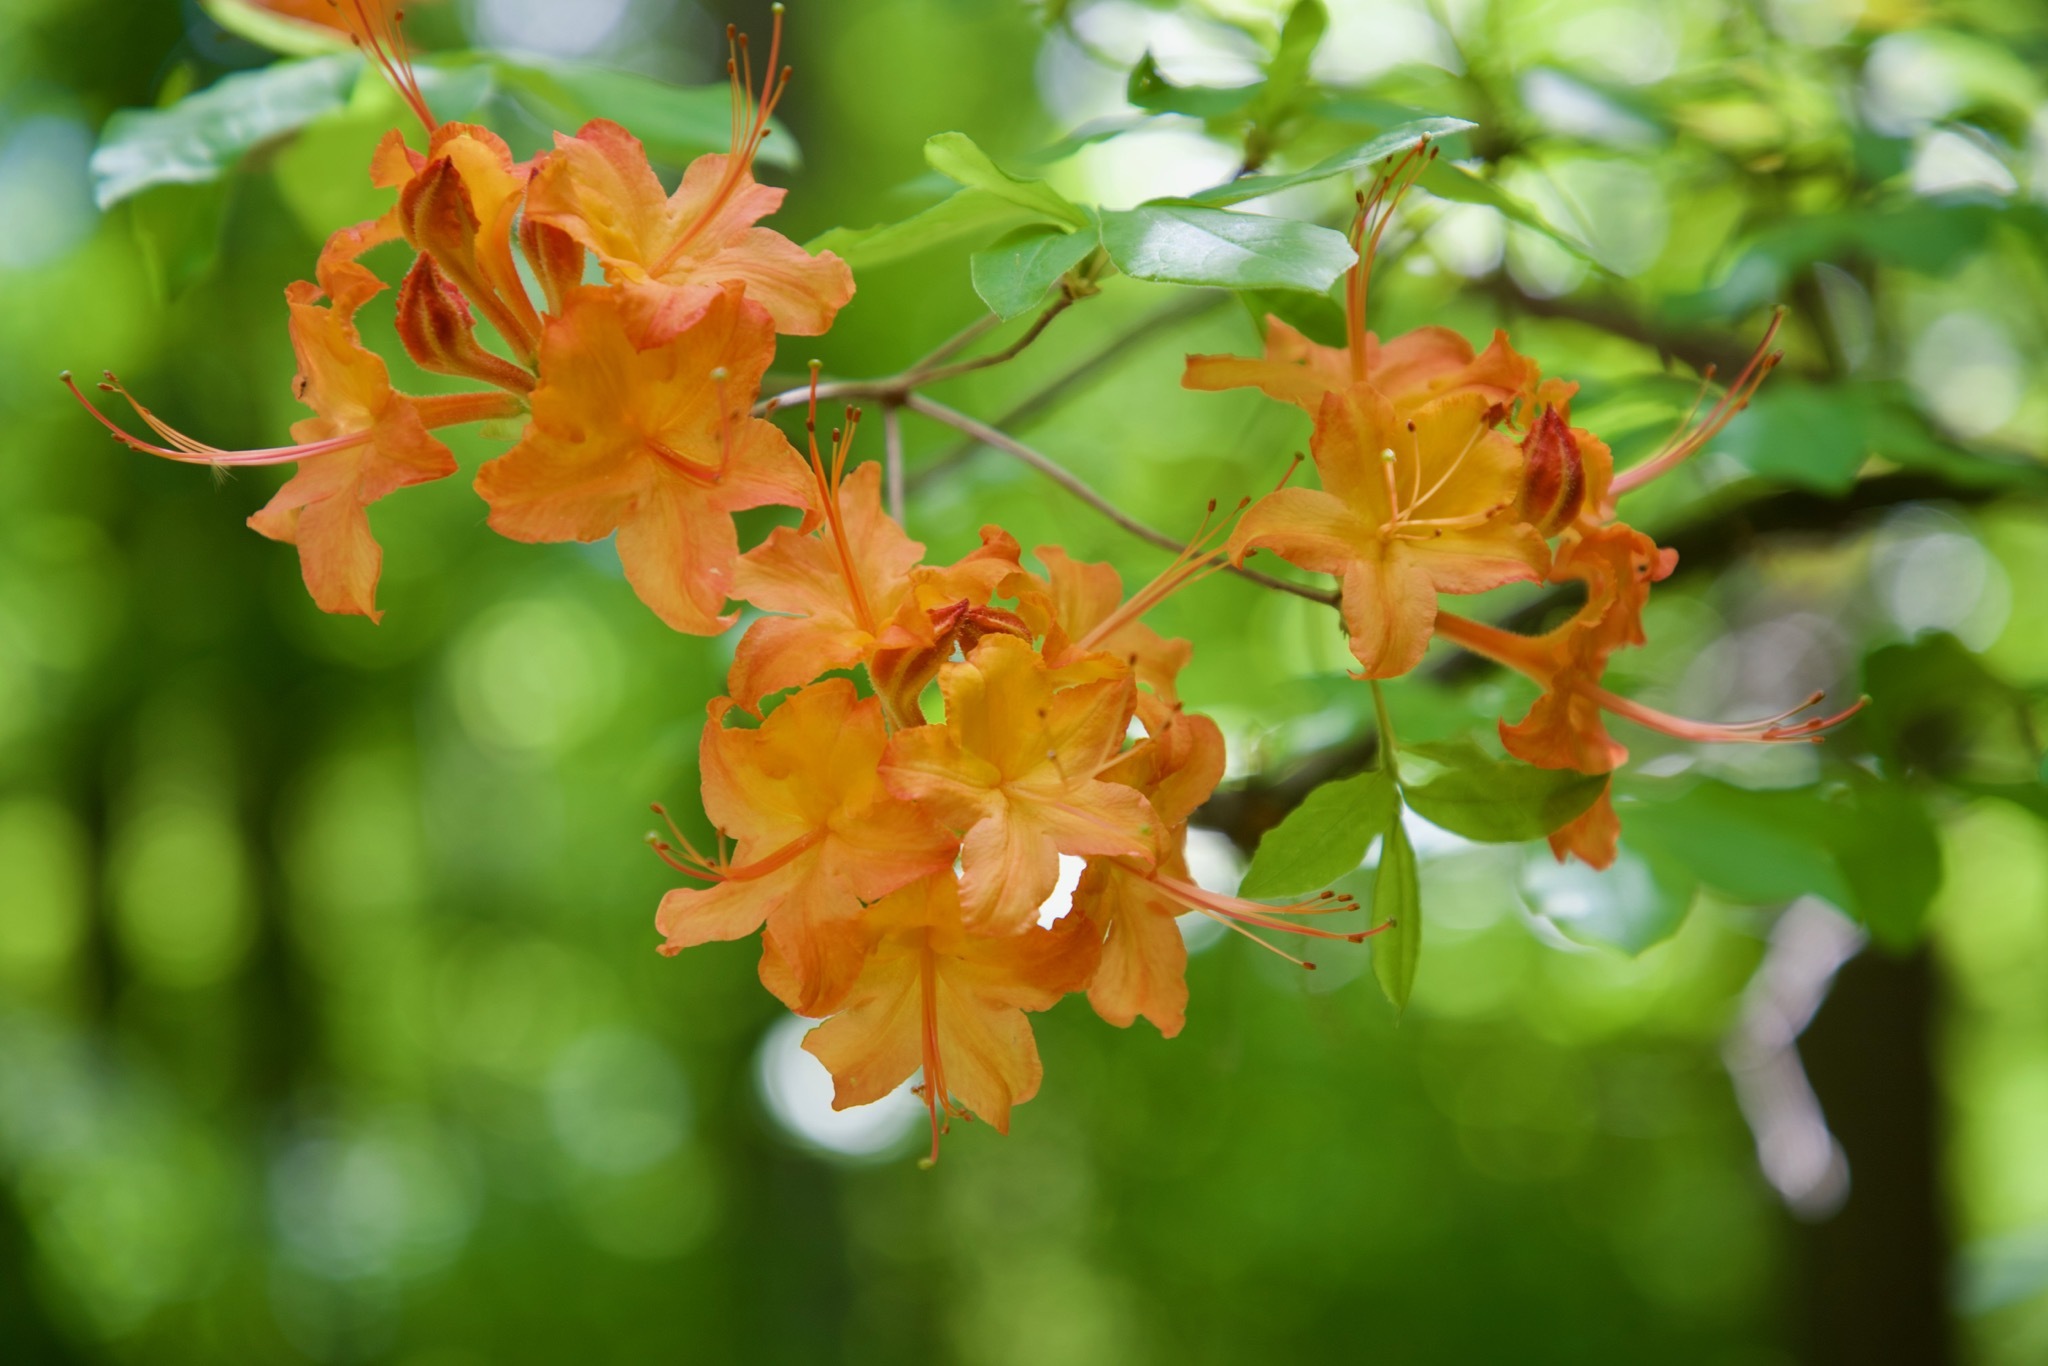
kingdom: Plantae
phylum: Tracheophyta
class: Magnoliopsida
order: Ericales
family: Ericaceae
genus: Rhododendron
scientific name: Rhododendron calendulaceum
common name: Flame azalea
